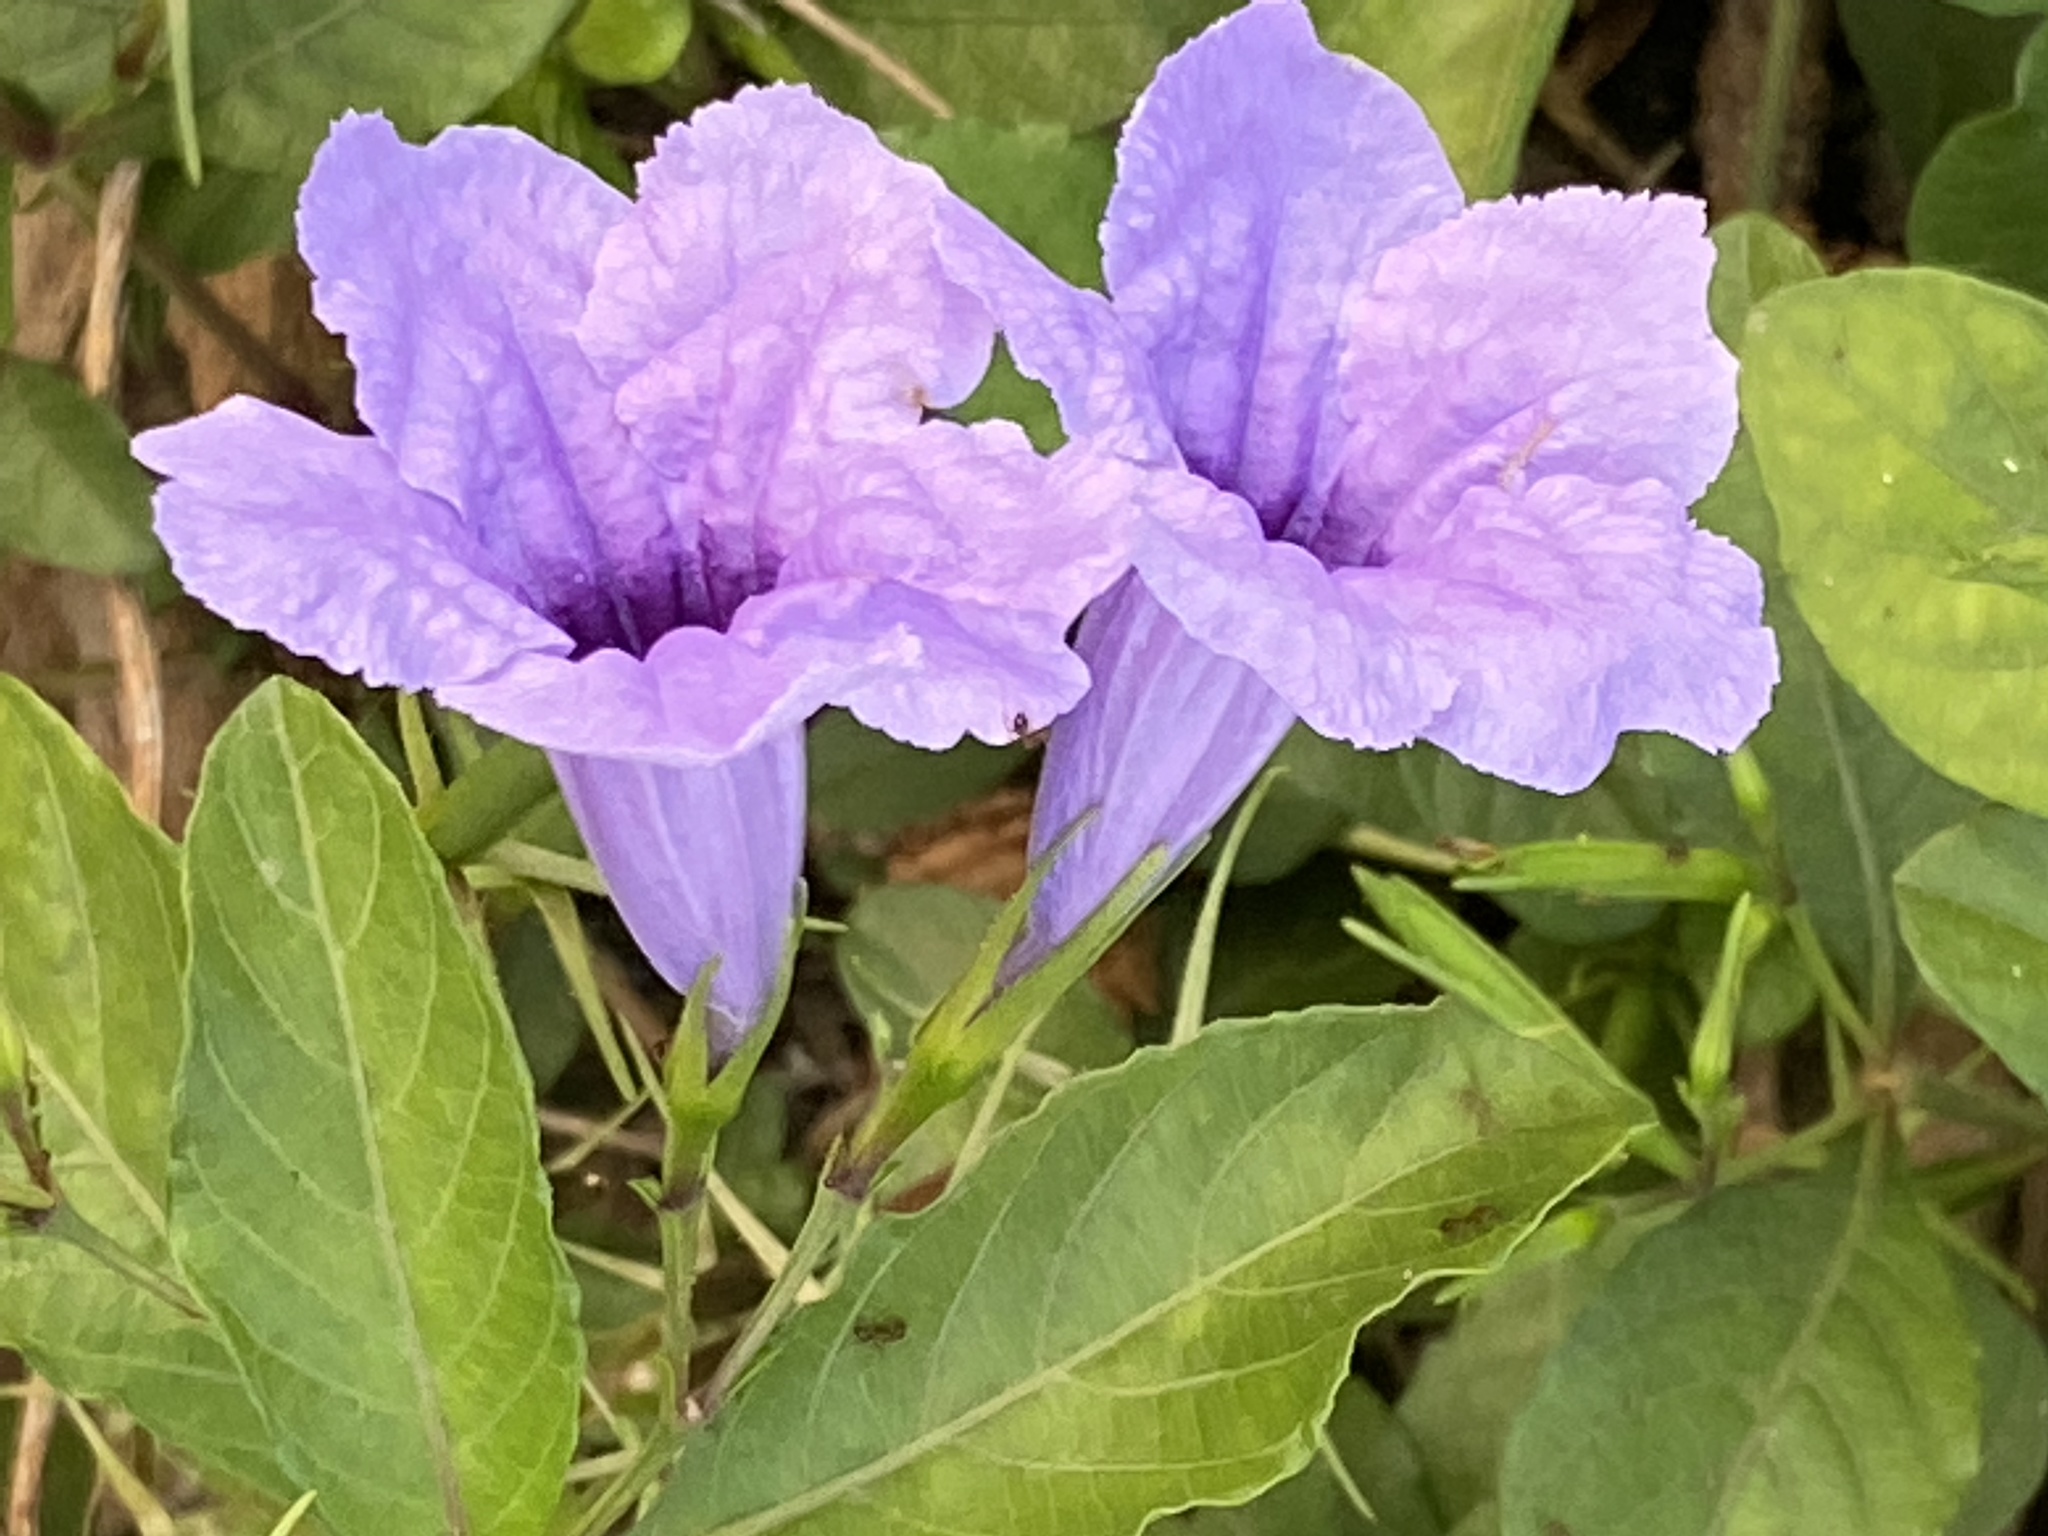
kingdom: Plantae
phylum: Tracheophyta
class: Magnoliopsida
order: Lamiales
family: Acanthaceae
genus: Ruellia
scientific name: Ruellia tuberosa
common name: Devil's bit
